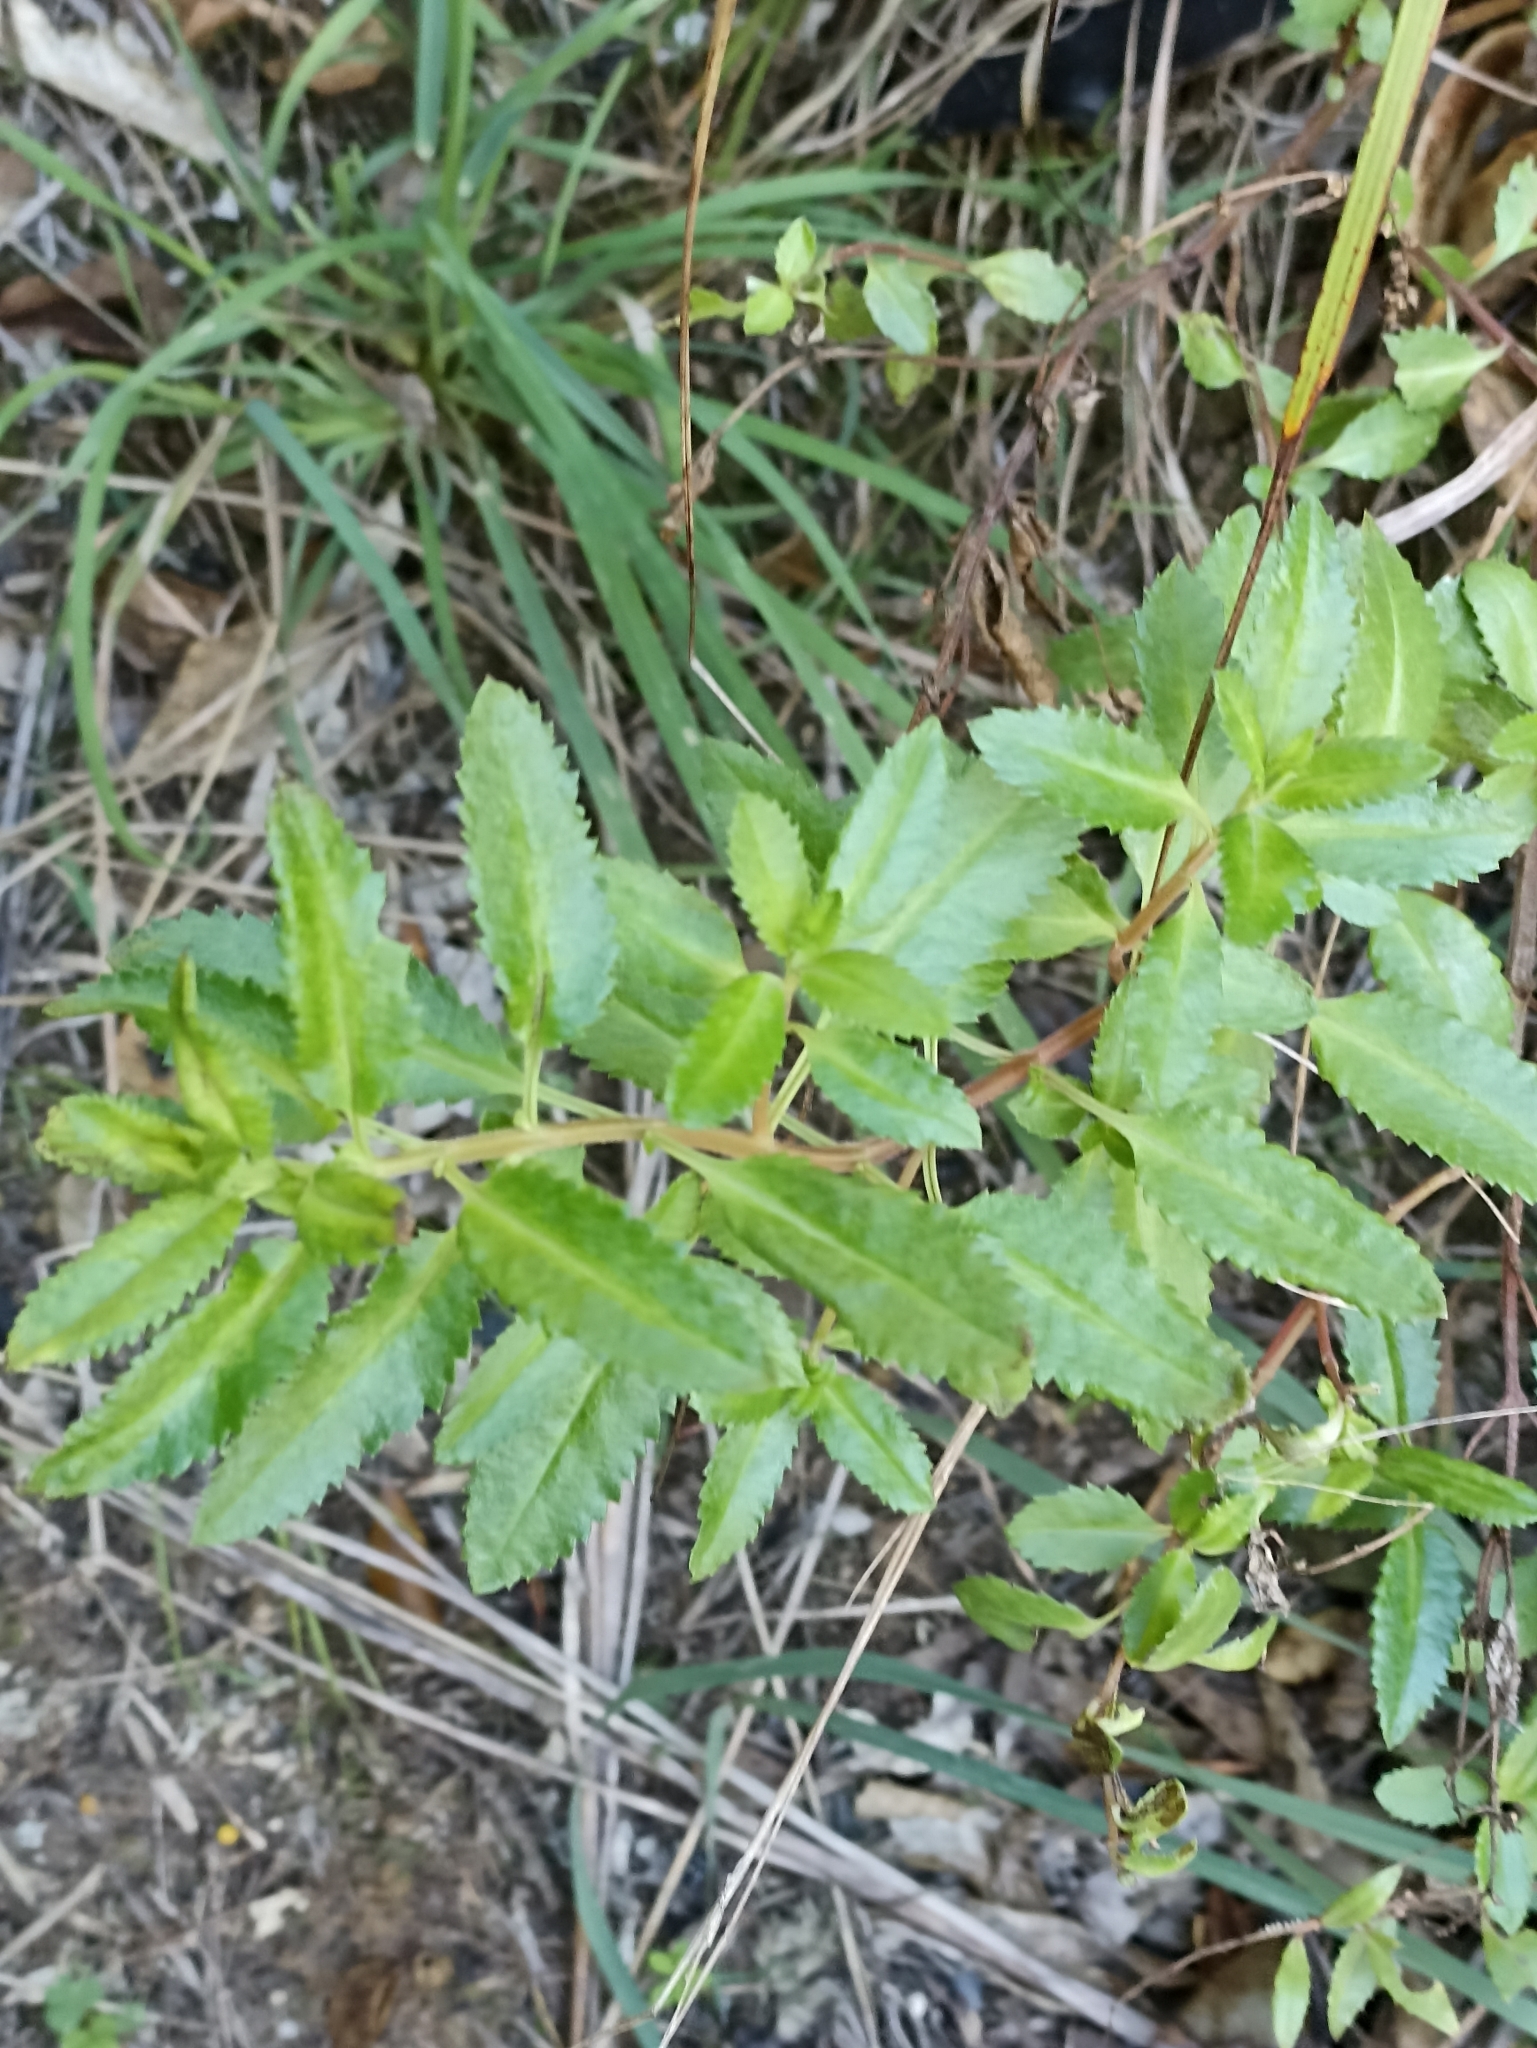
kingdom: Plantae
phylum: Tracheophyta
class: Magnoliopsida
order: Saxifragales
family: Haloragaceae
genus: Haloragis
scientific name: Haloragis erecta
